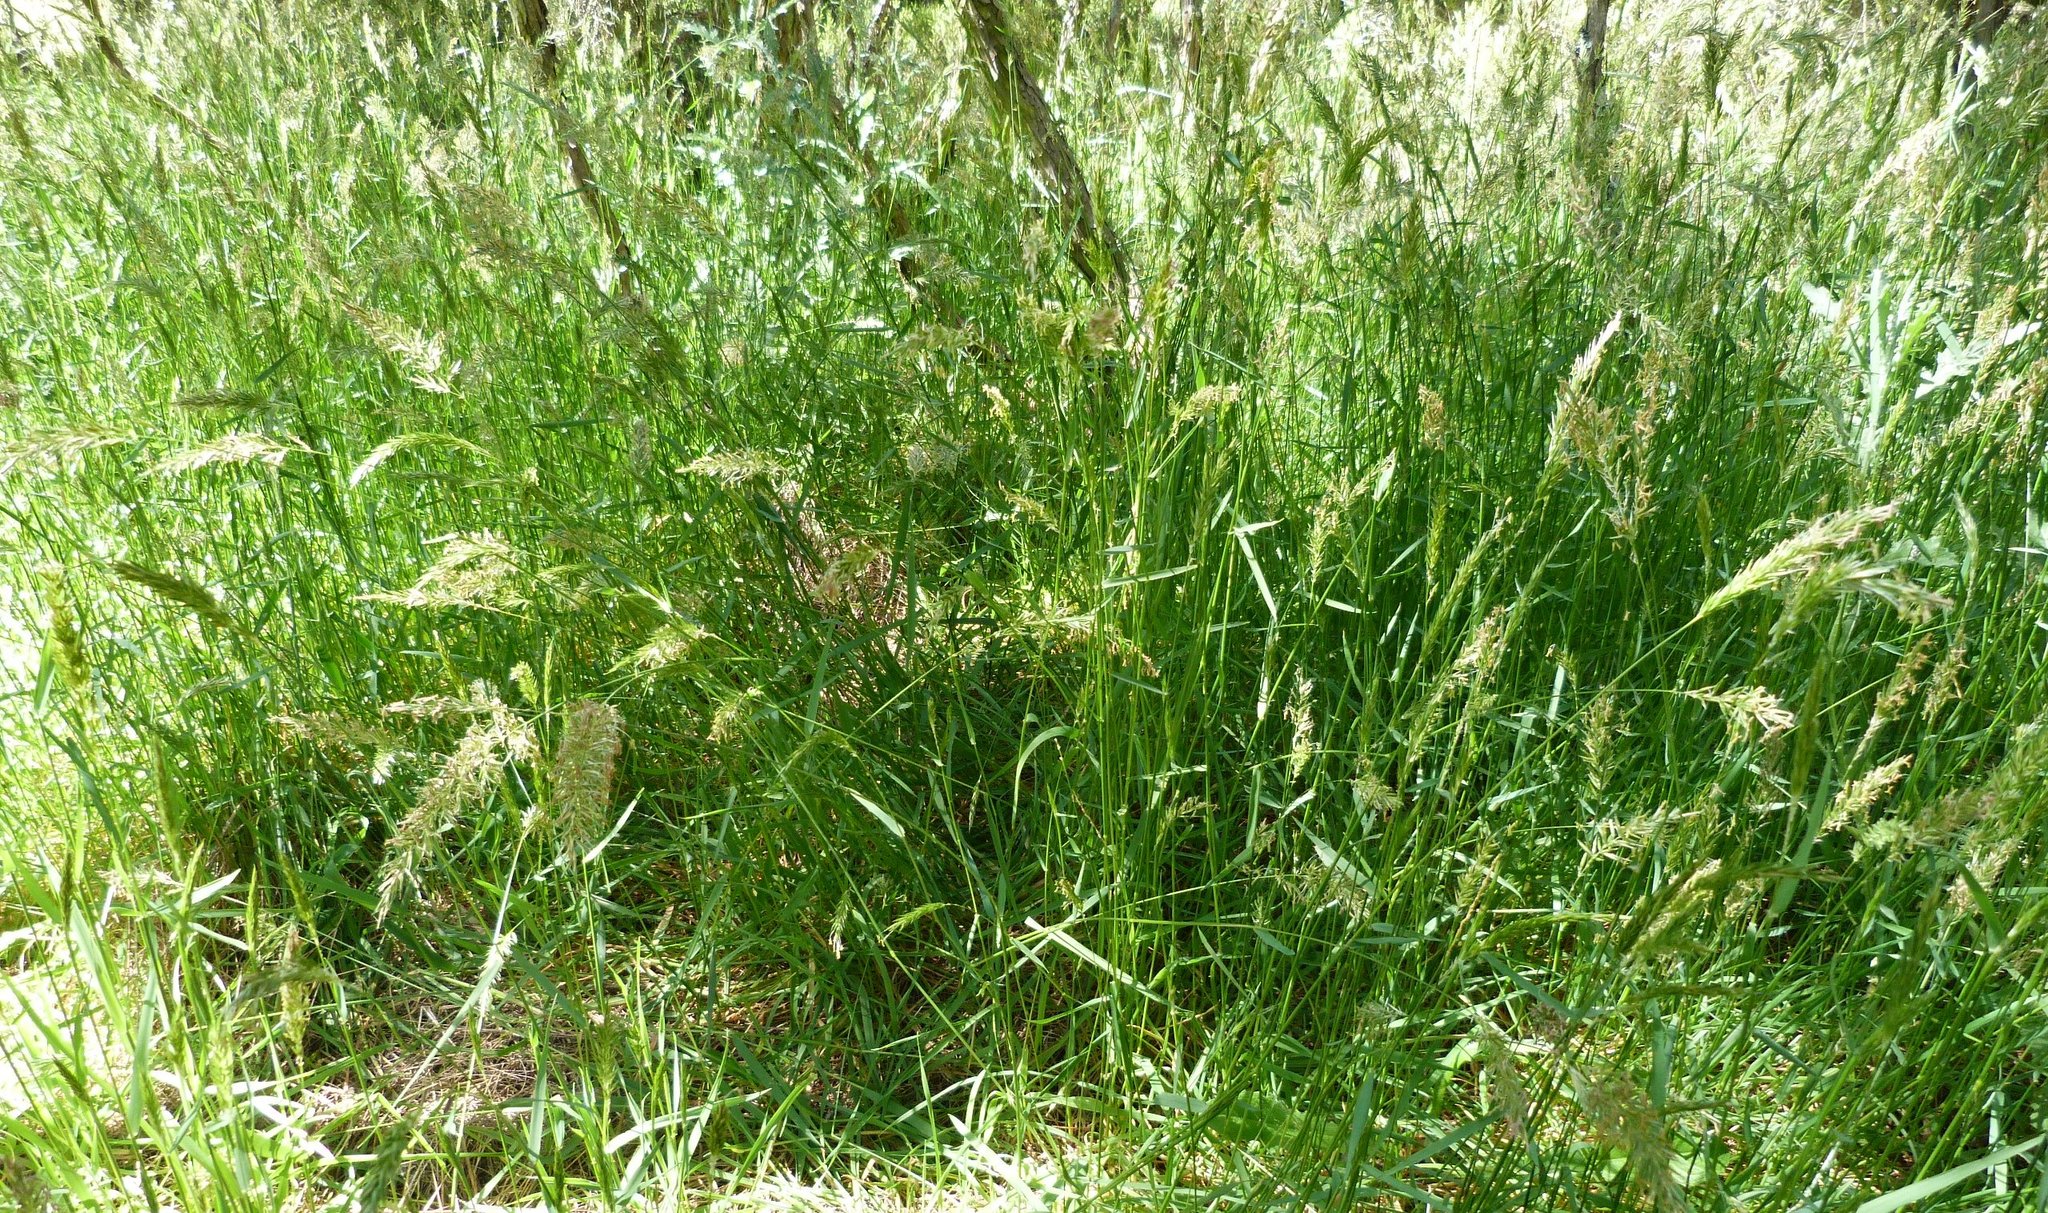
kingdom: Plantae
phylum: Tracheophyta
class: Liliopsida
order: Poales
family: Poaceae
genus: Anthoxanthum
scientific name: Anthoxanthum odoratum
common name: Sweet vernalgrass
